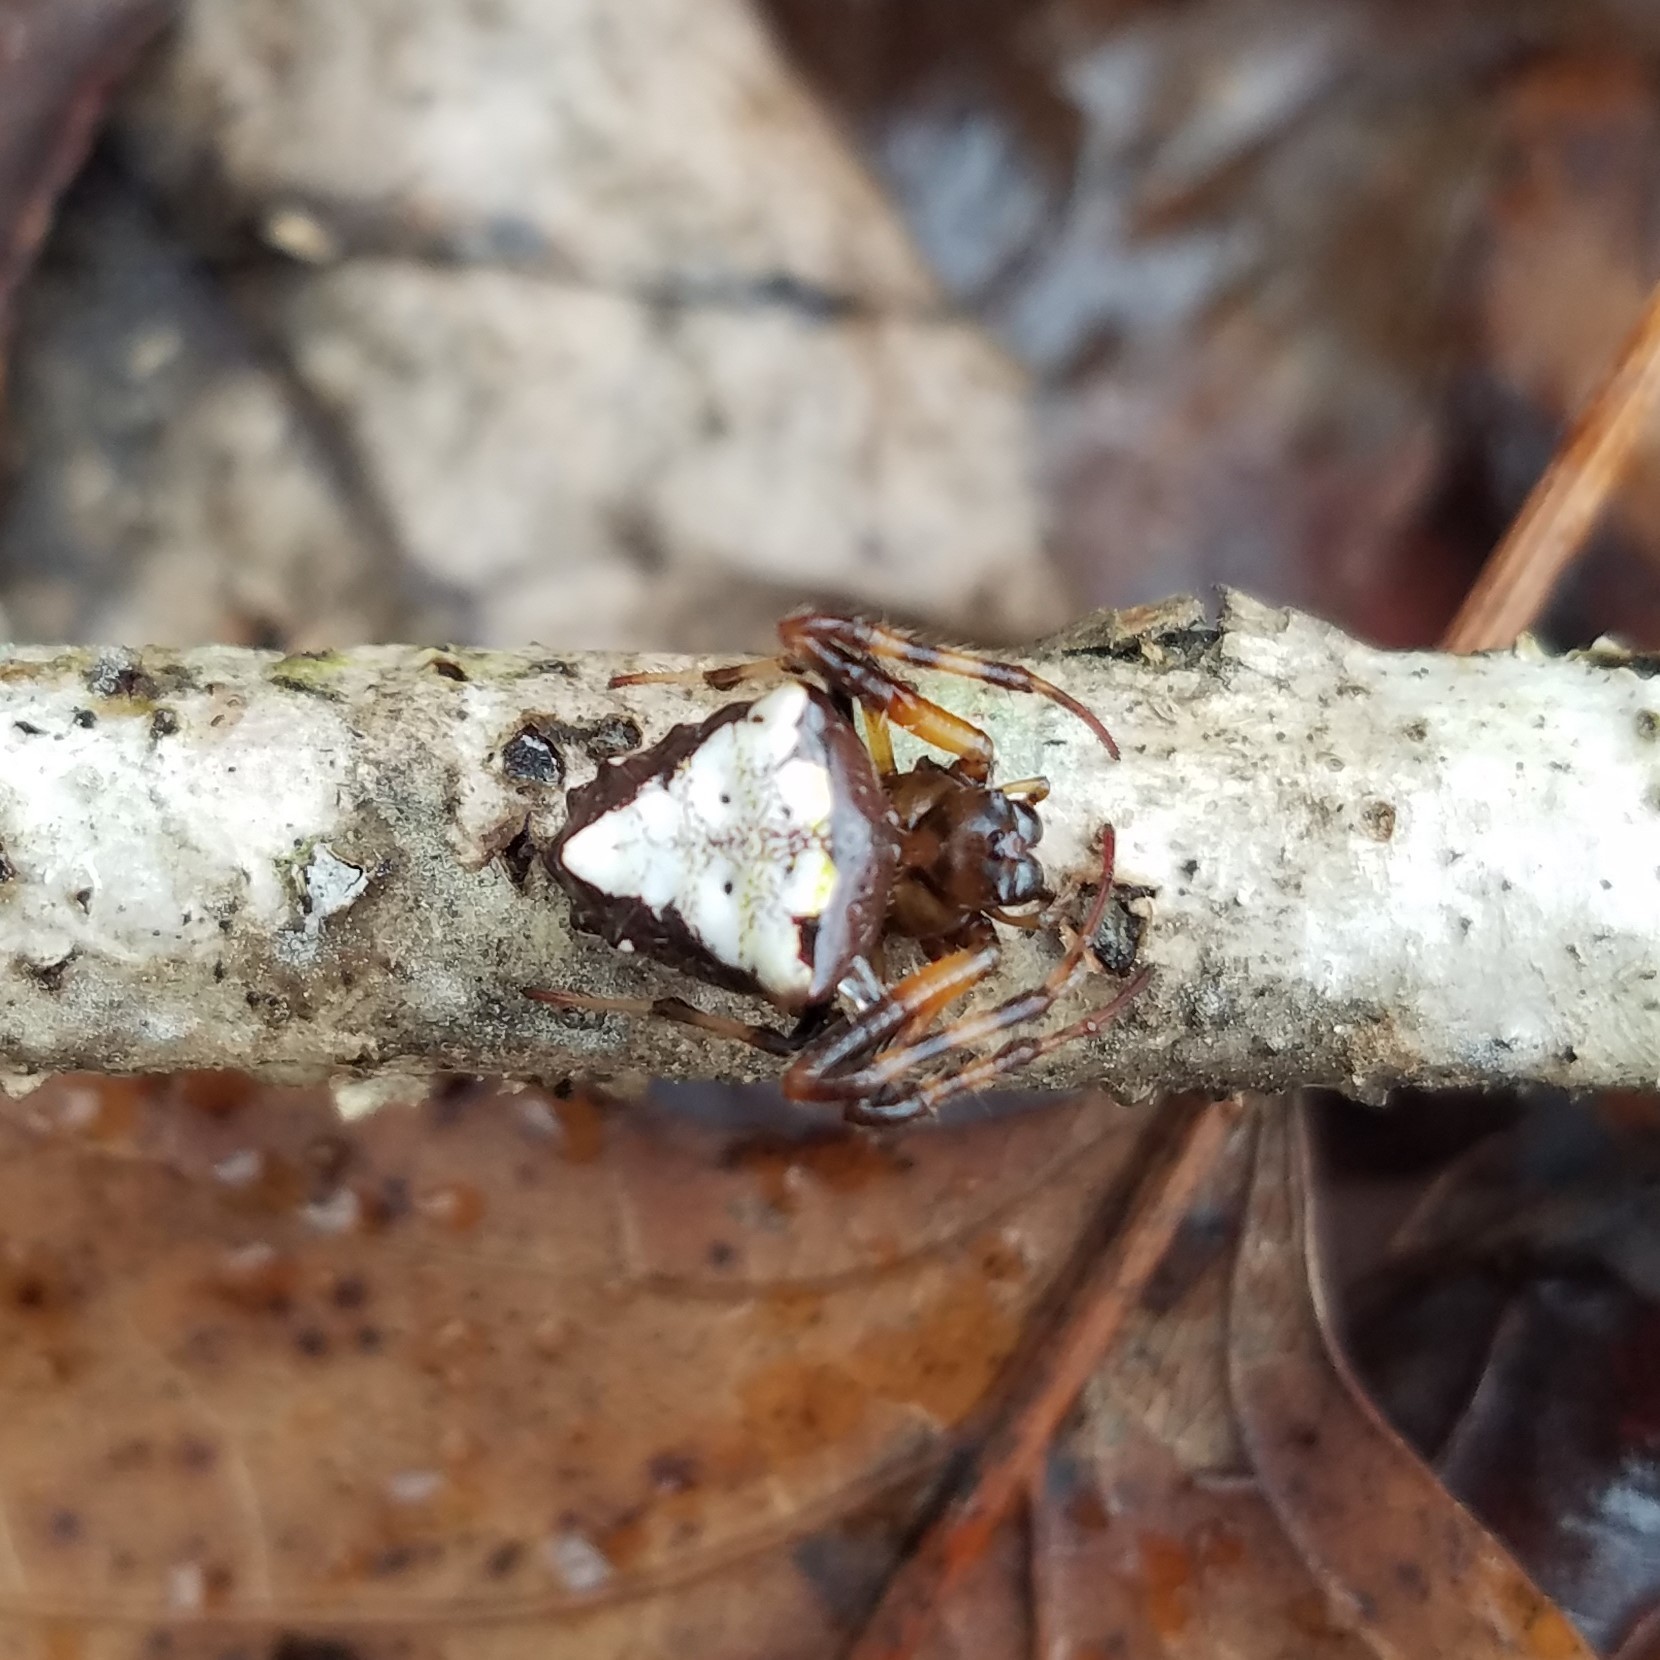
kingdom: Animalia
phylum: Arthropoda
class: Arachnida
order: Araneae
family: Araneidae
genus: Verrucosa
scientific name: Verrucosa arenata
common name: Orb weavers
